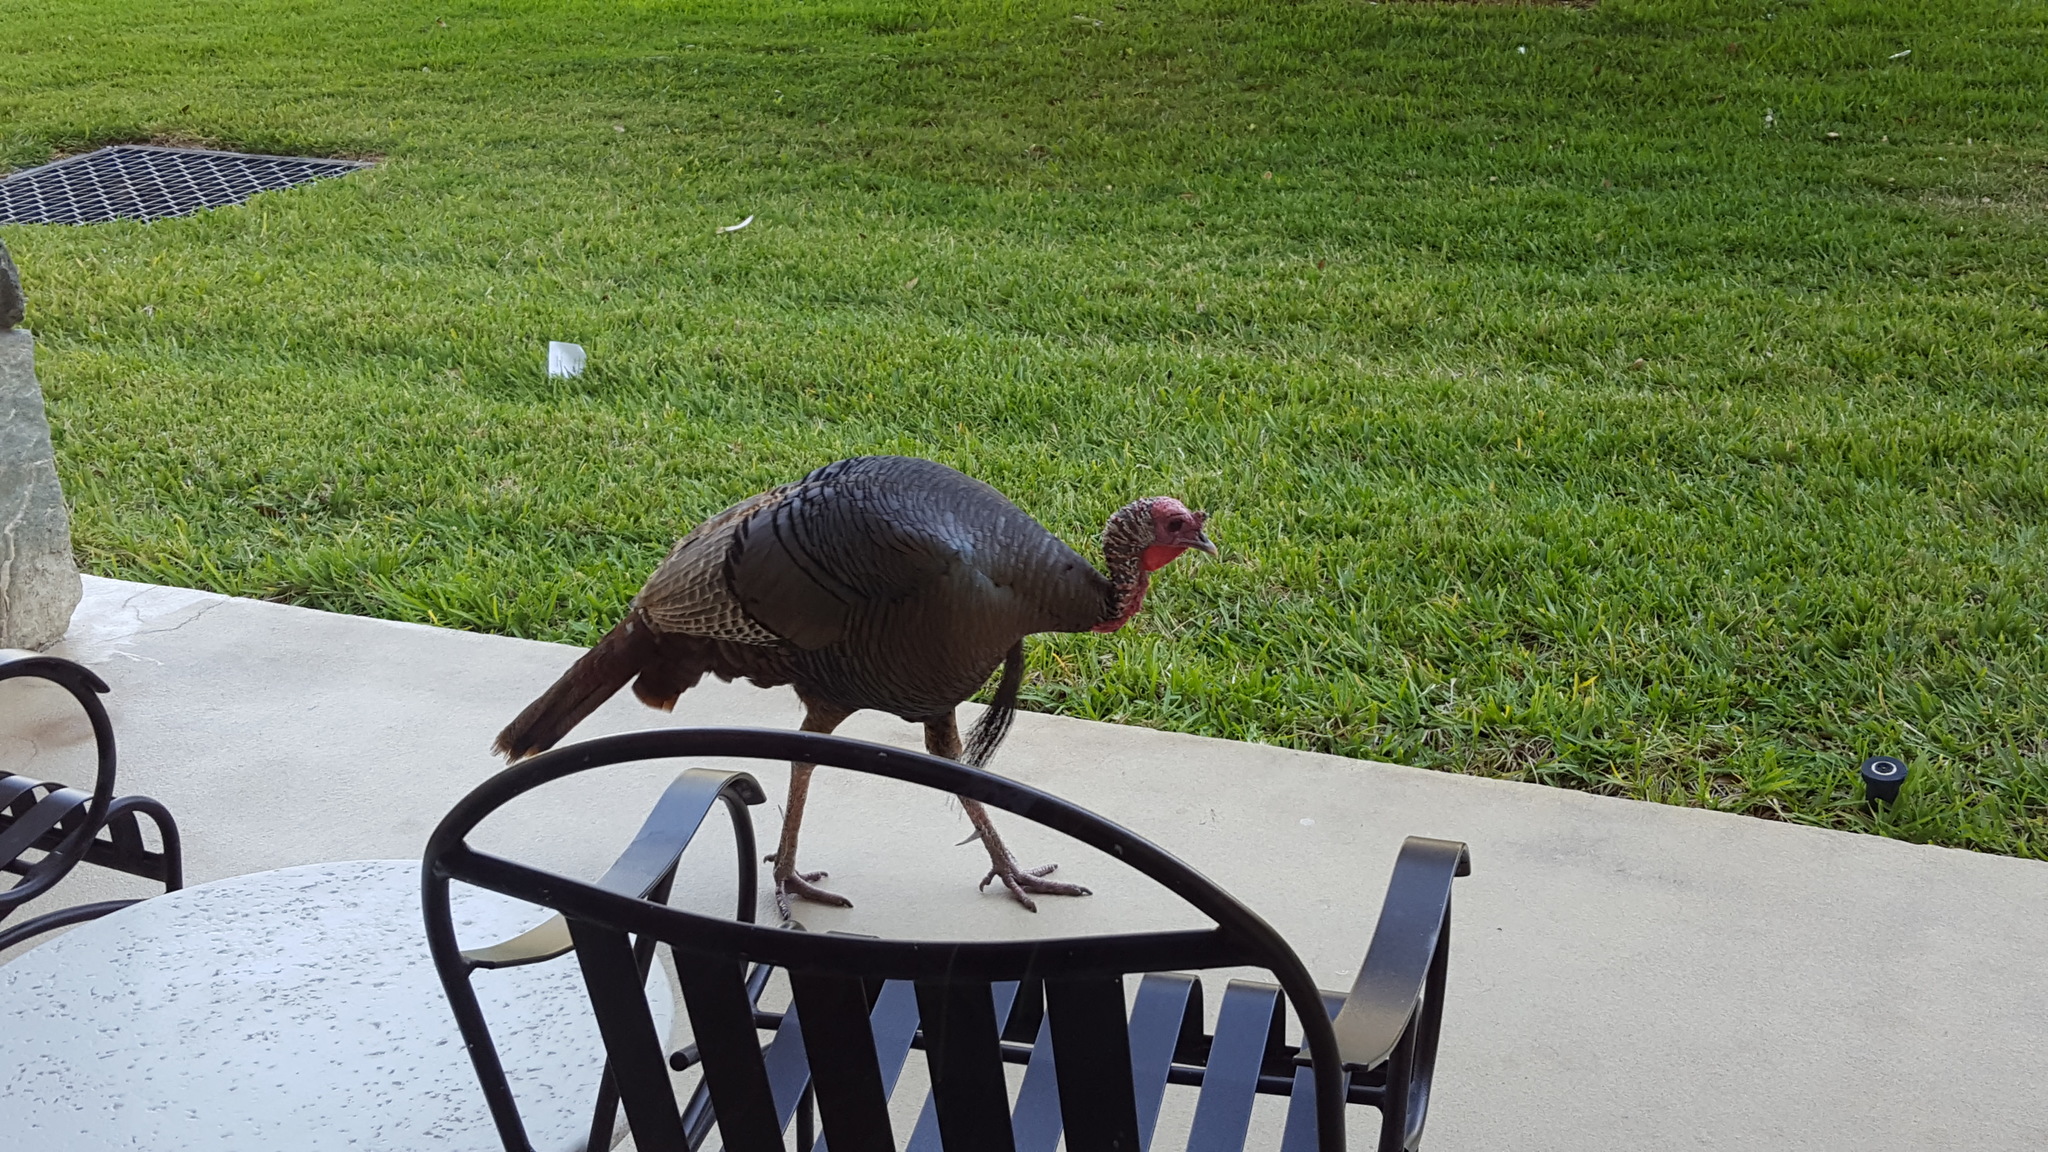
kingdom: Animalia
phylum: Chordata
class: Aves
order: Galliformes
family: Phasianidae
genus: Meleagris
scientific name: Meleagris gallopavo
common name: Wild turkey
